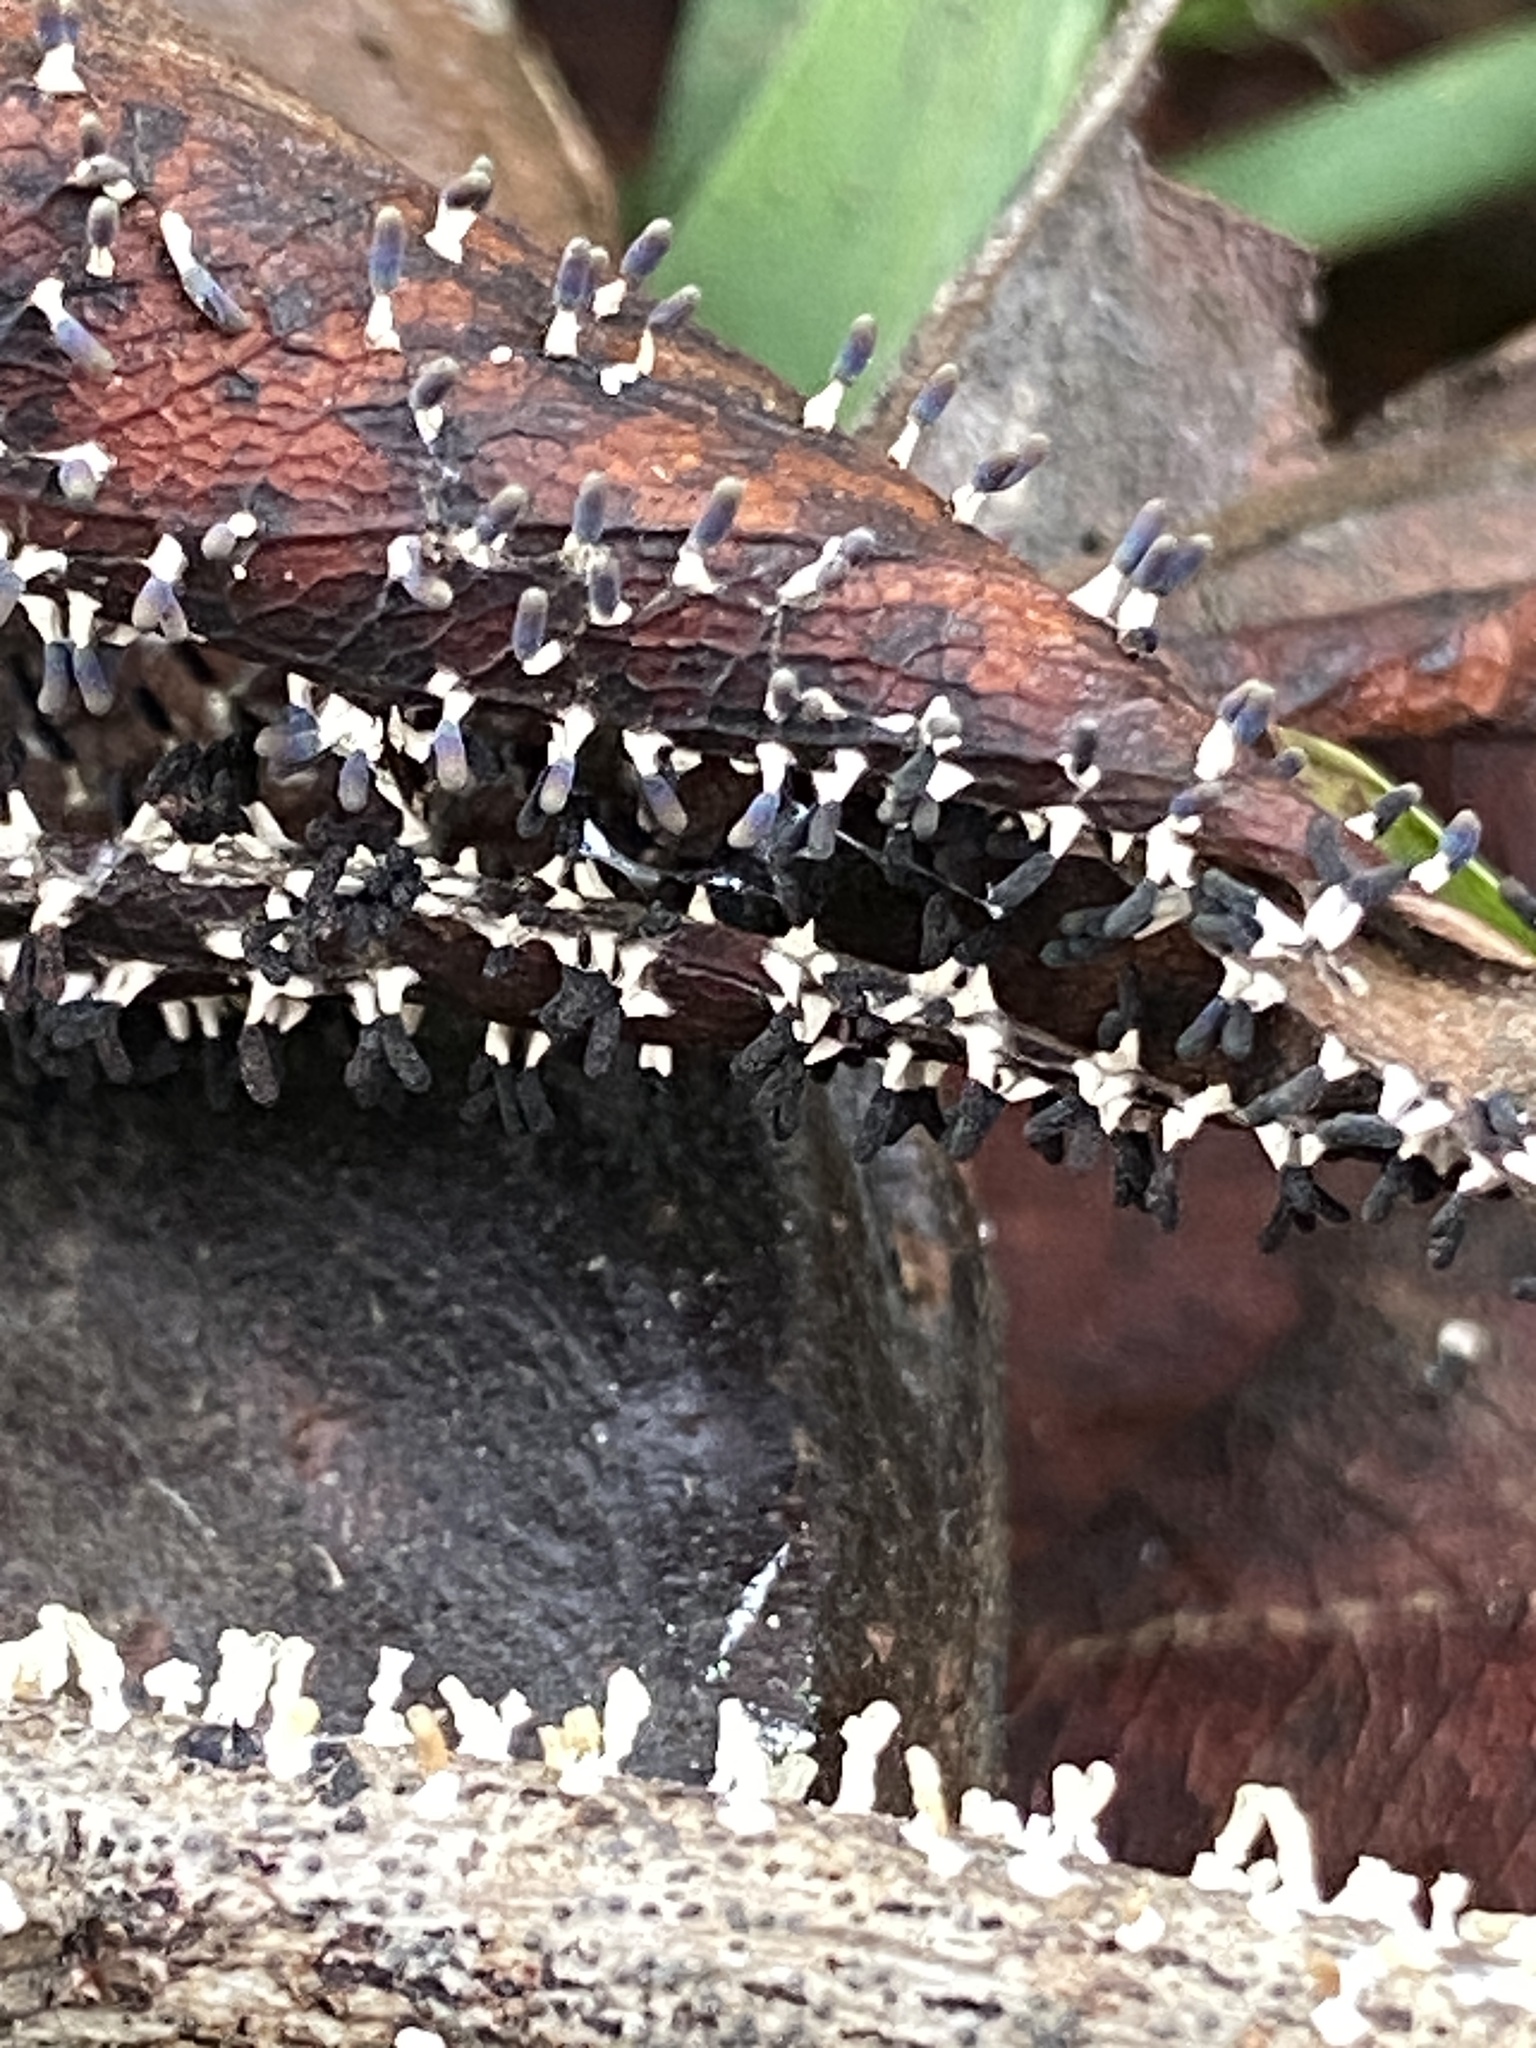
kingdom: Protozoa
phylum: Mycetozoa
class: Myxomycetes
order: Physarales
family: Didymiaceae
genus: Diachea
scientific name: Diachea leucopodia
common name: White-footed slime
